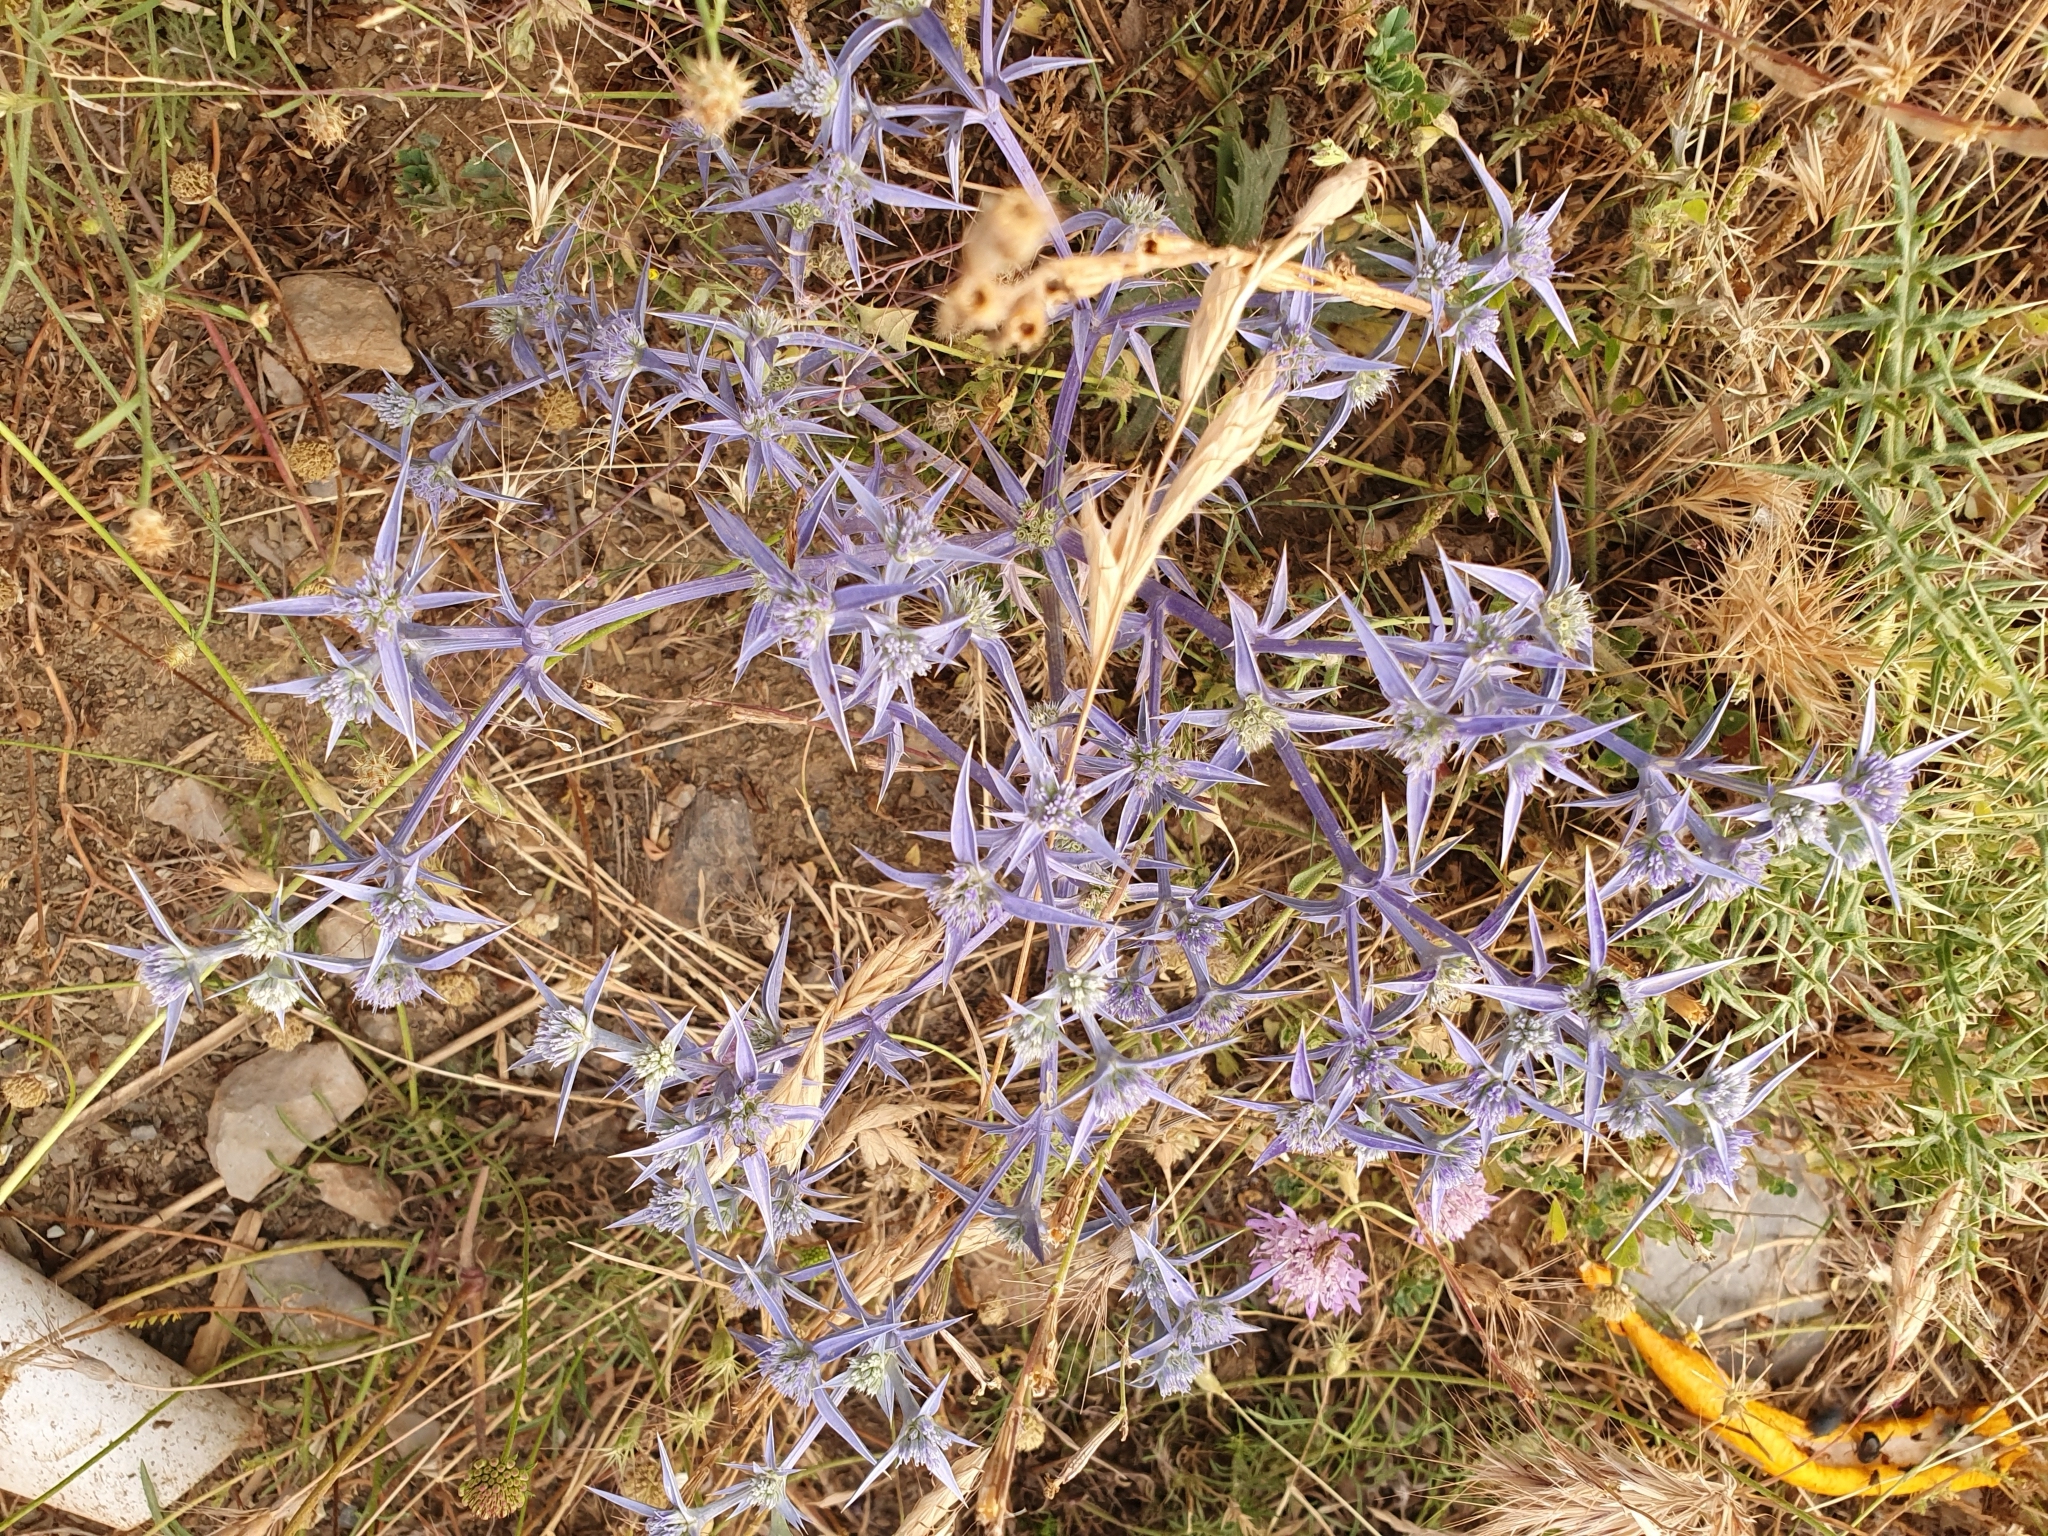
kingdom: Plantae
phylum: Tracheophyta
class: Magnoliopsida
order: Apiales
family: Apiaceae
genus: Eryngium
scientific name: Eryngium triquetrum
